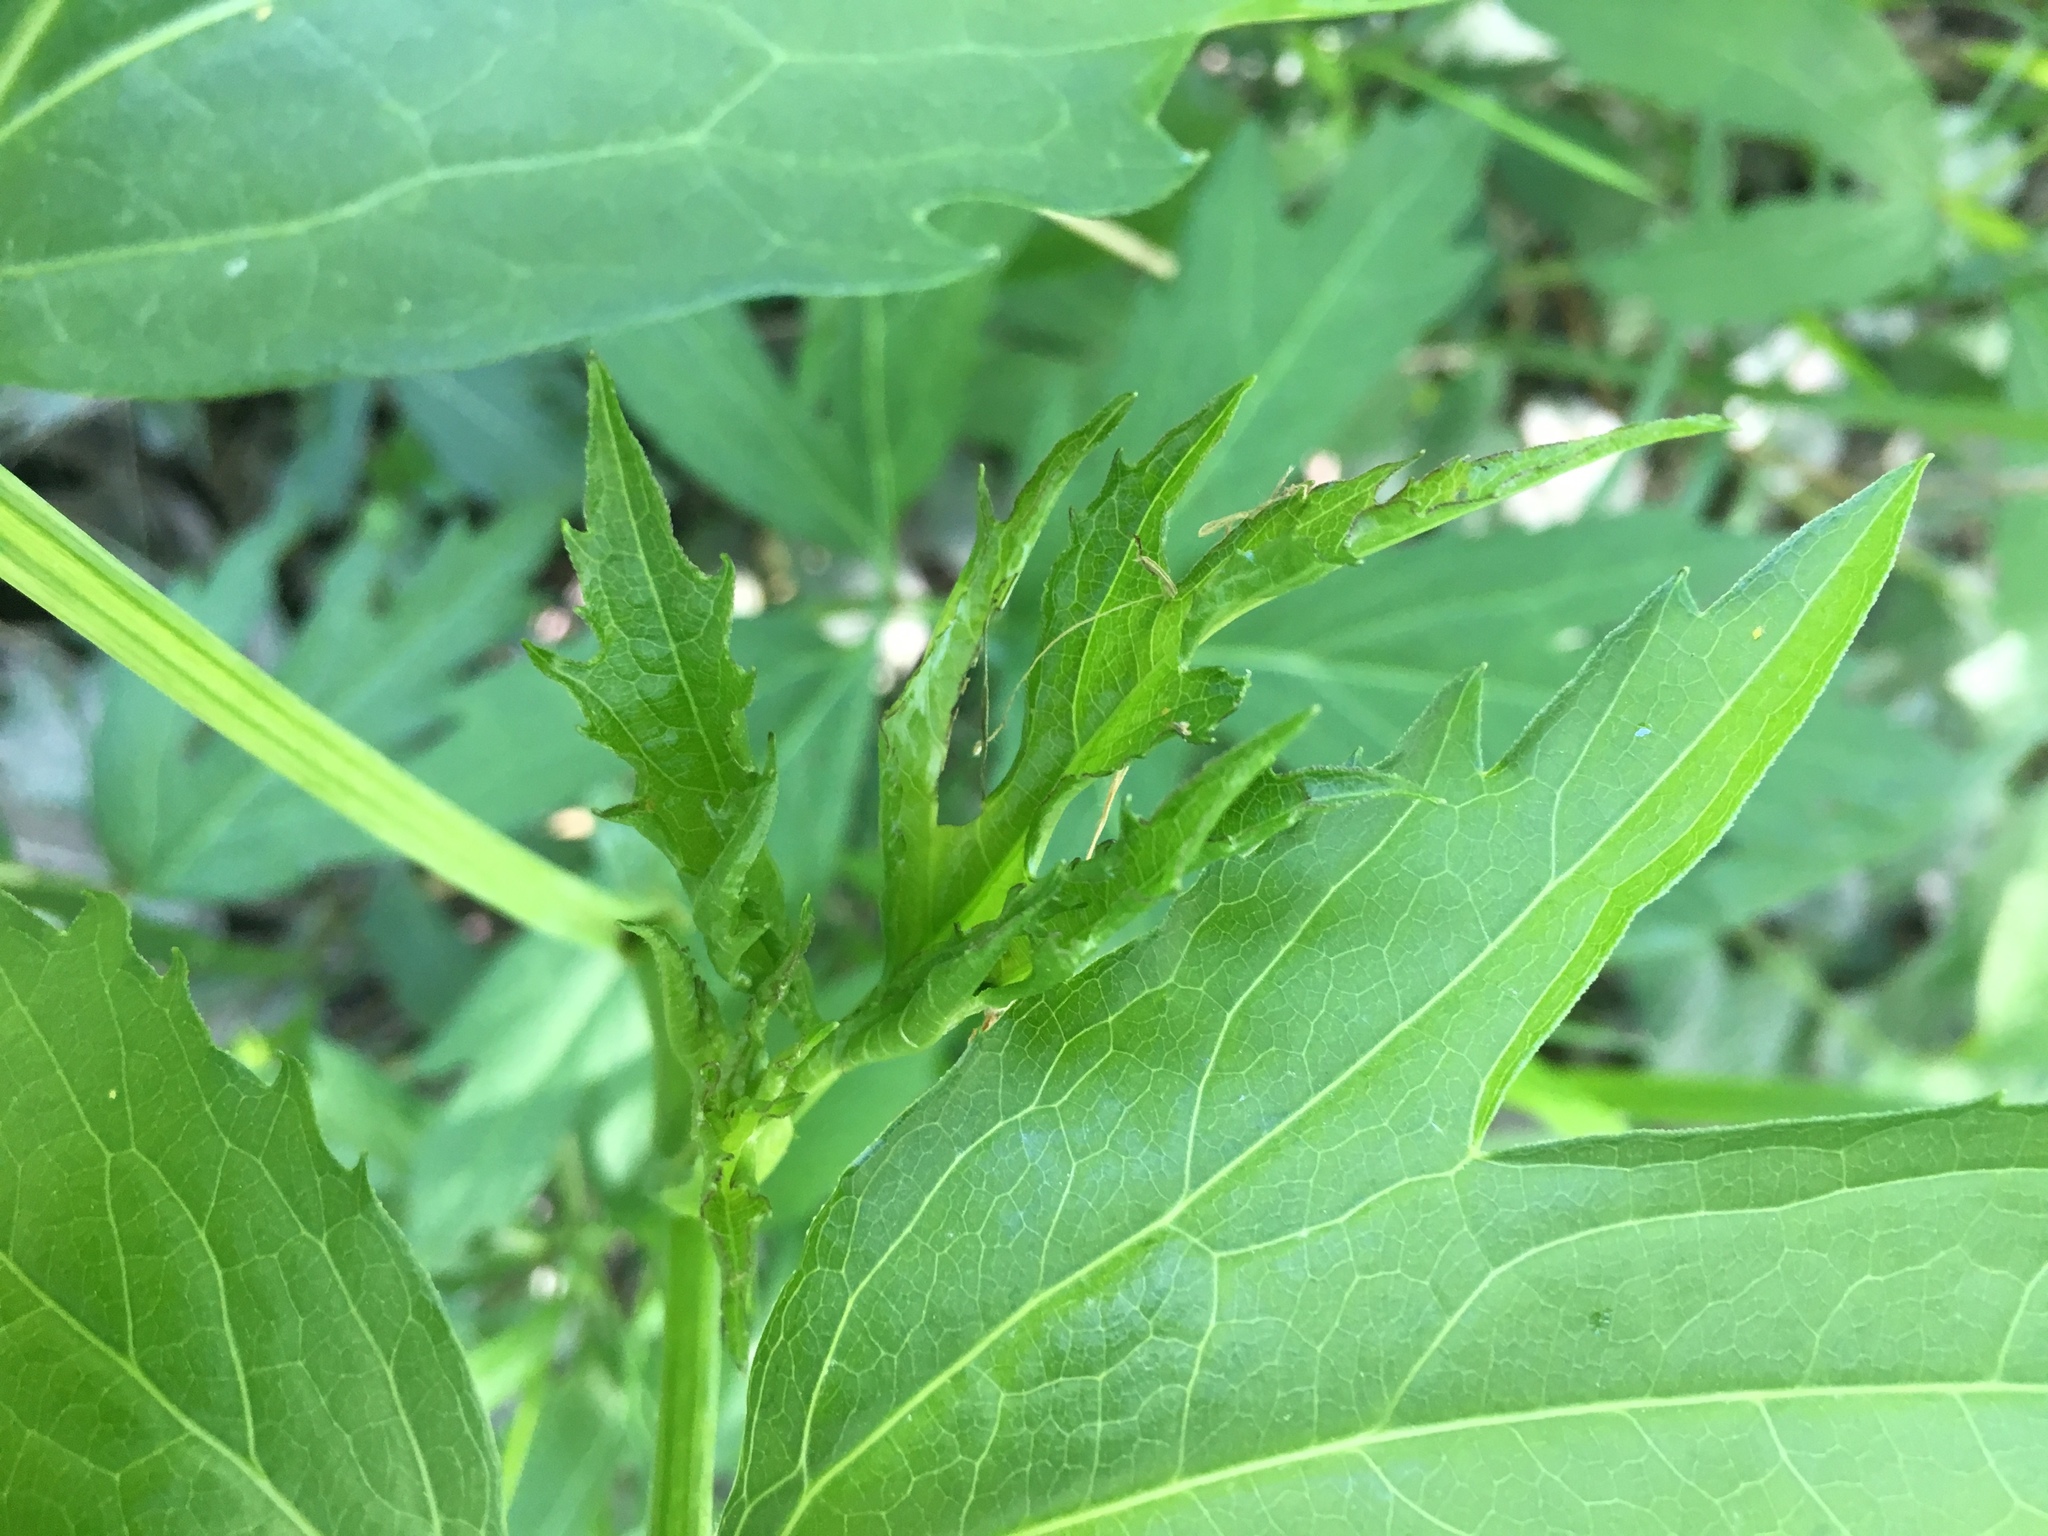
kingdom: Plantae
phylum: Tracheophyta
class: Magnoliopsida
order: Asterales
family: Asteraceae
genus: Rudbeckia
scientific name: Rudbeckia laciniata
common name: Coneflower
